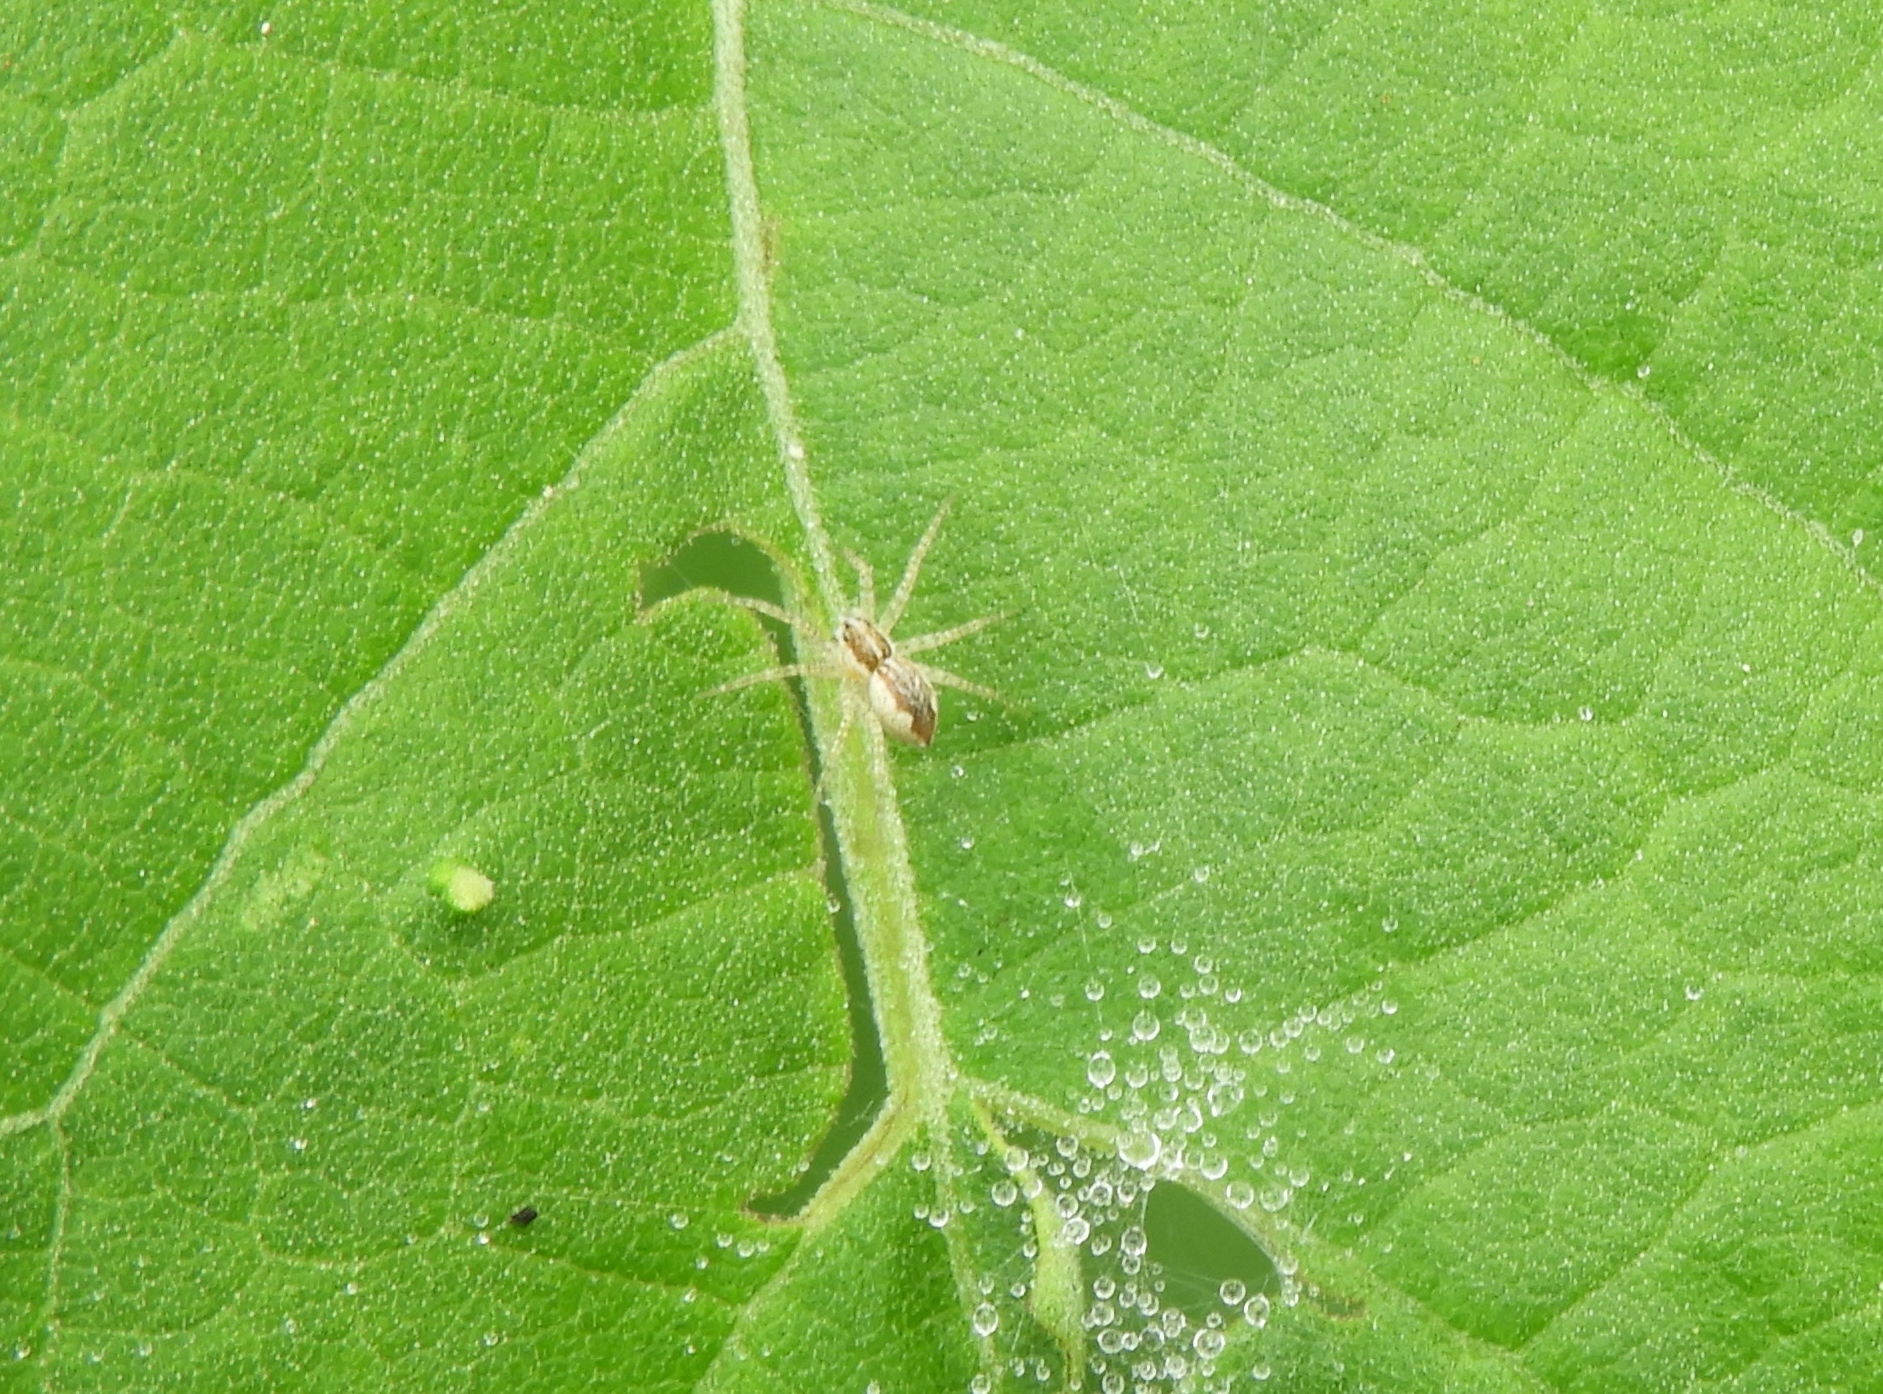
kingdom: Animalia
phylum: Arthropoda
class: Arachnida
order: Araneae
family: Pisauridae
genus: Tinus
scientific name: Tinus
